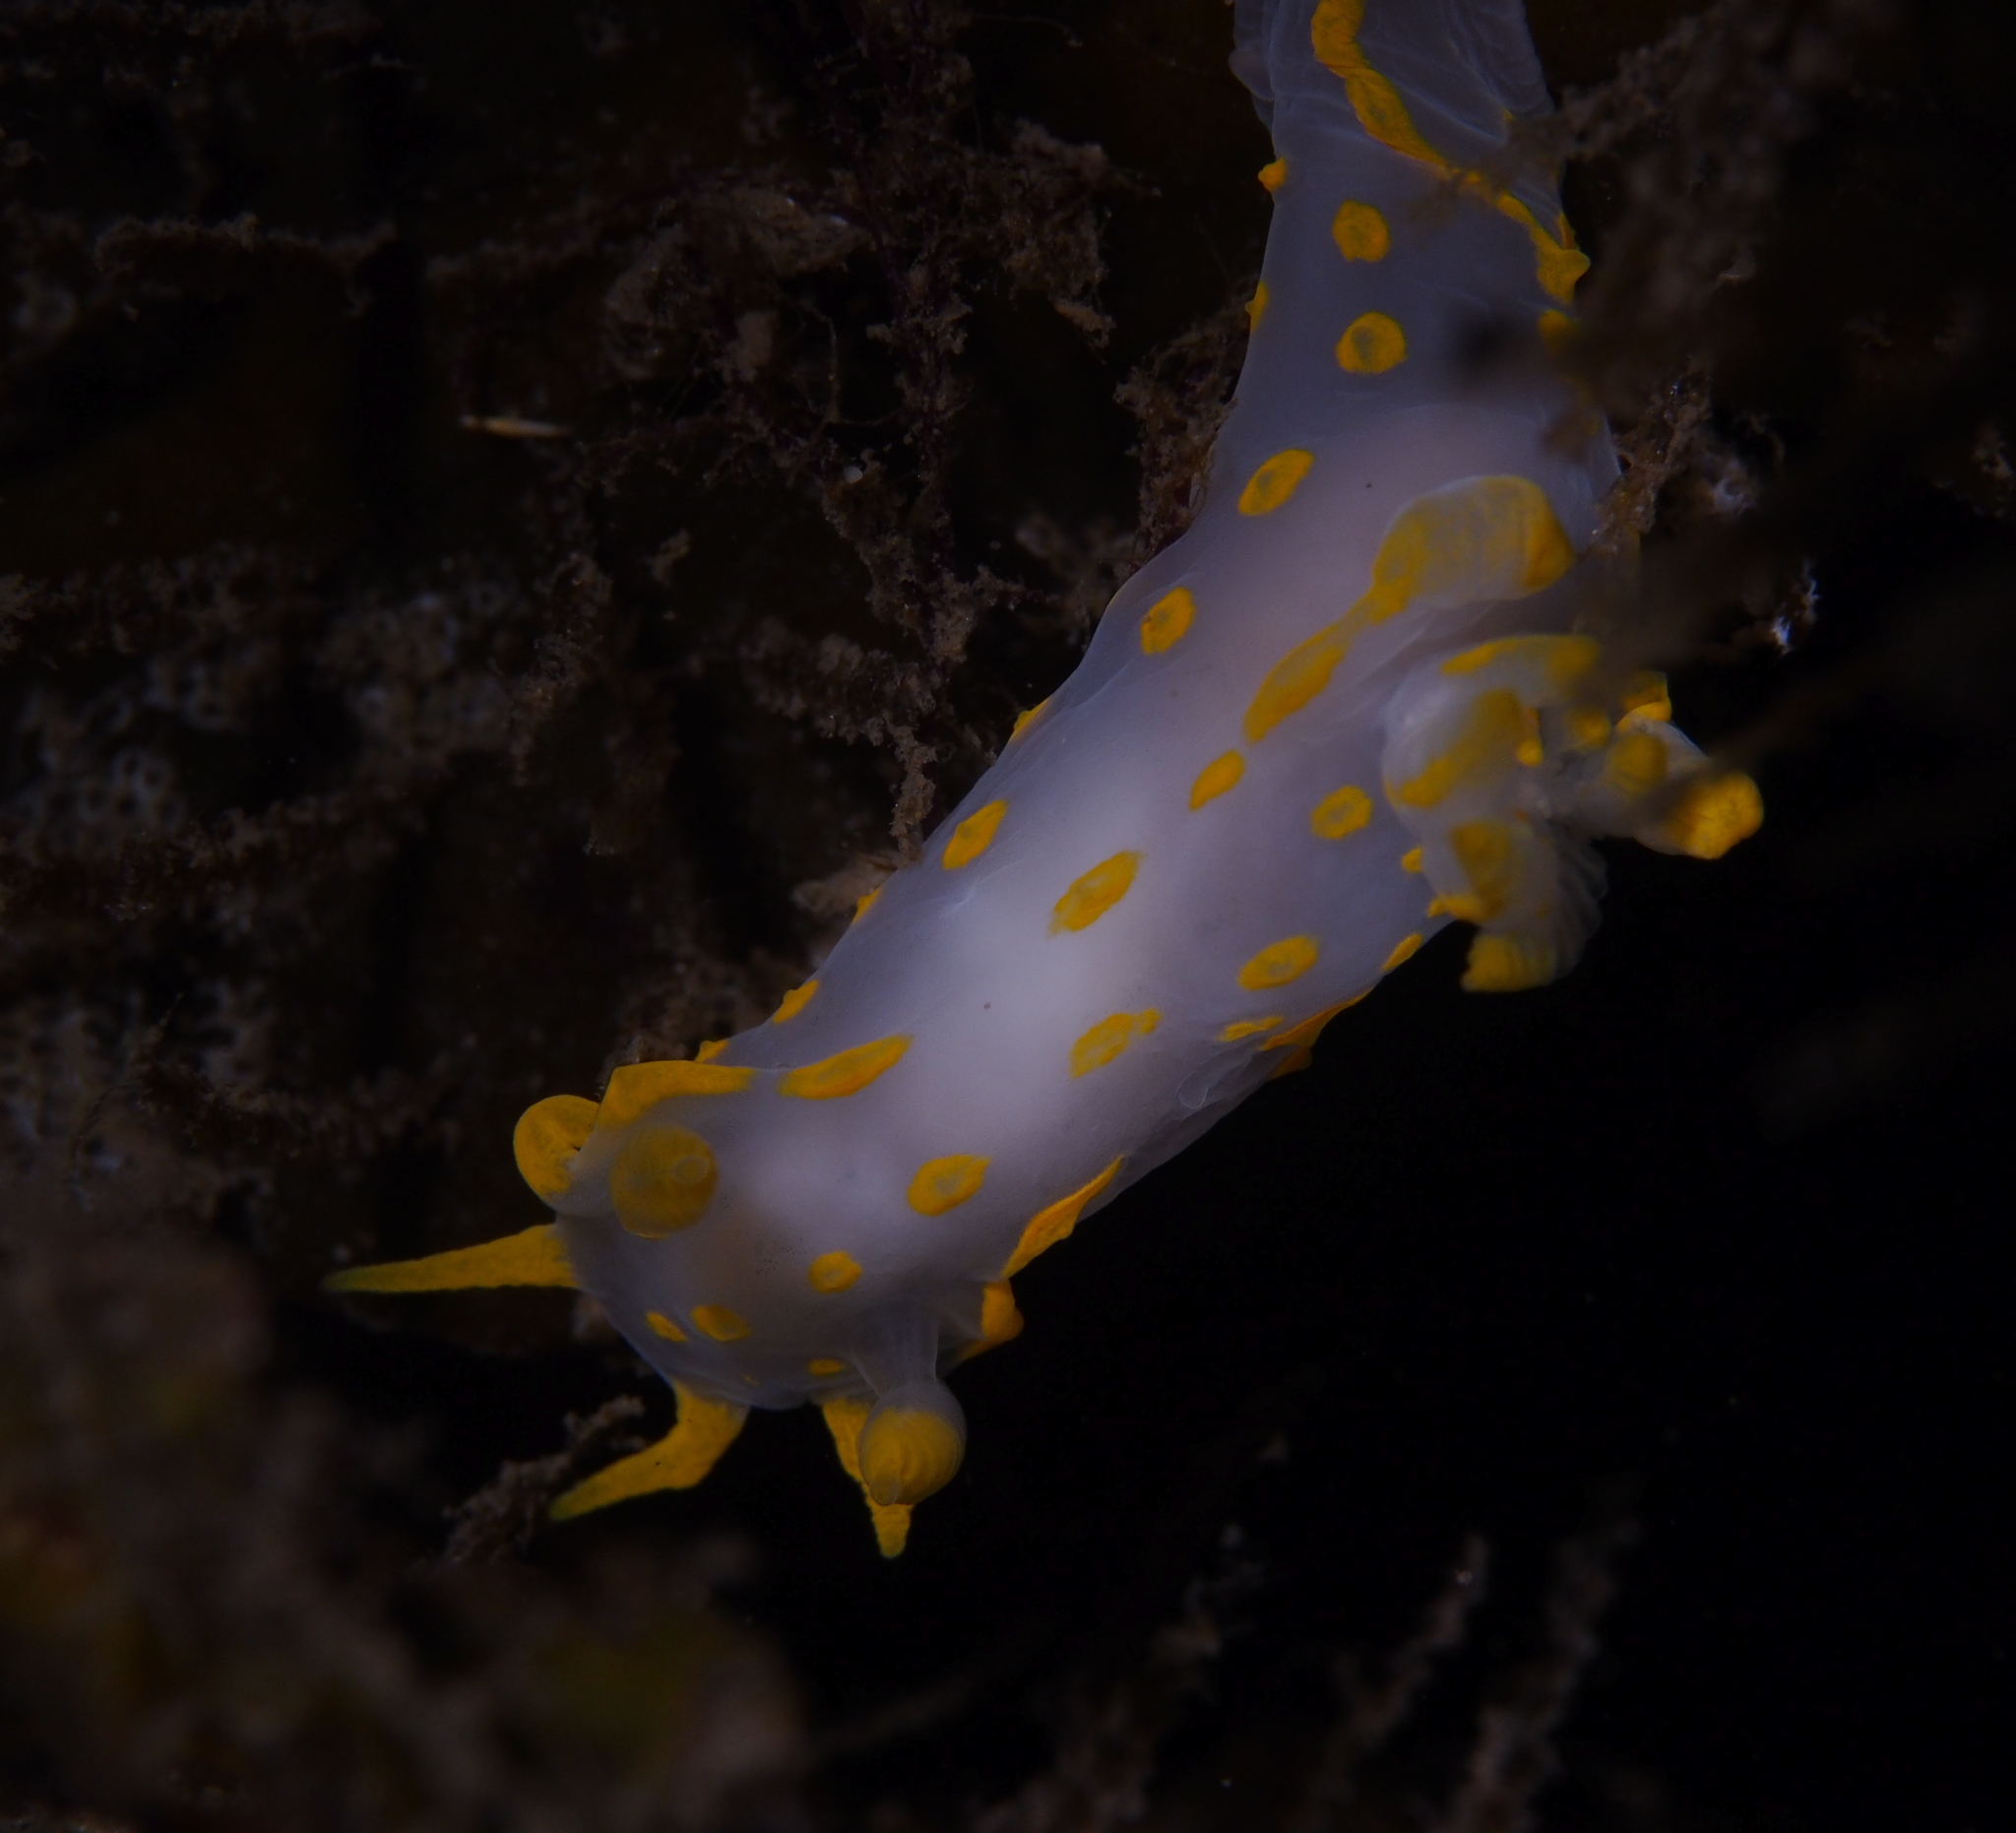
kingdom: Animalia
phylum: Mollusca
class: Gastropoda
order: Nudibranchia
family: Polyceridae
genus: Polycera
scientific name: Polycera quadrilineata
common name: Four-striped polycera
